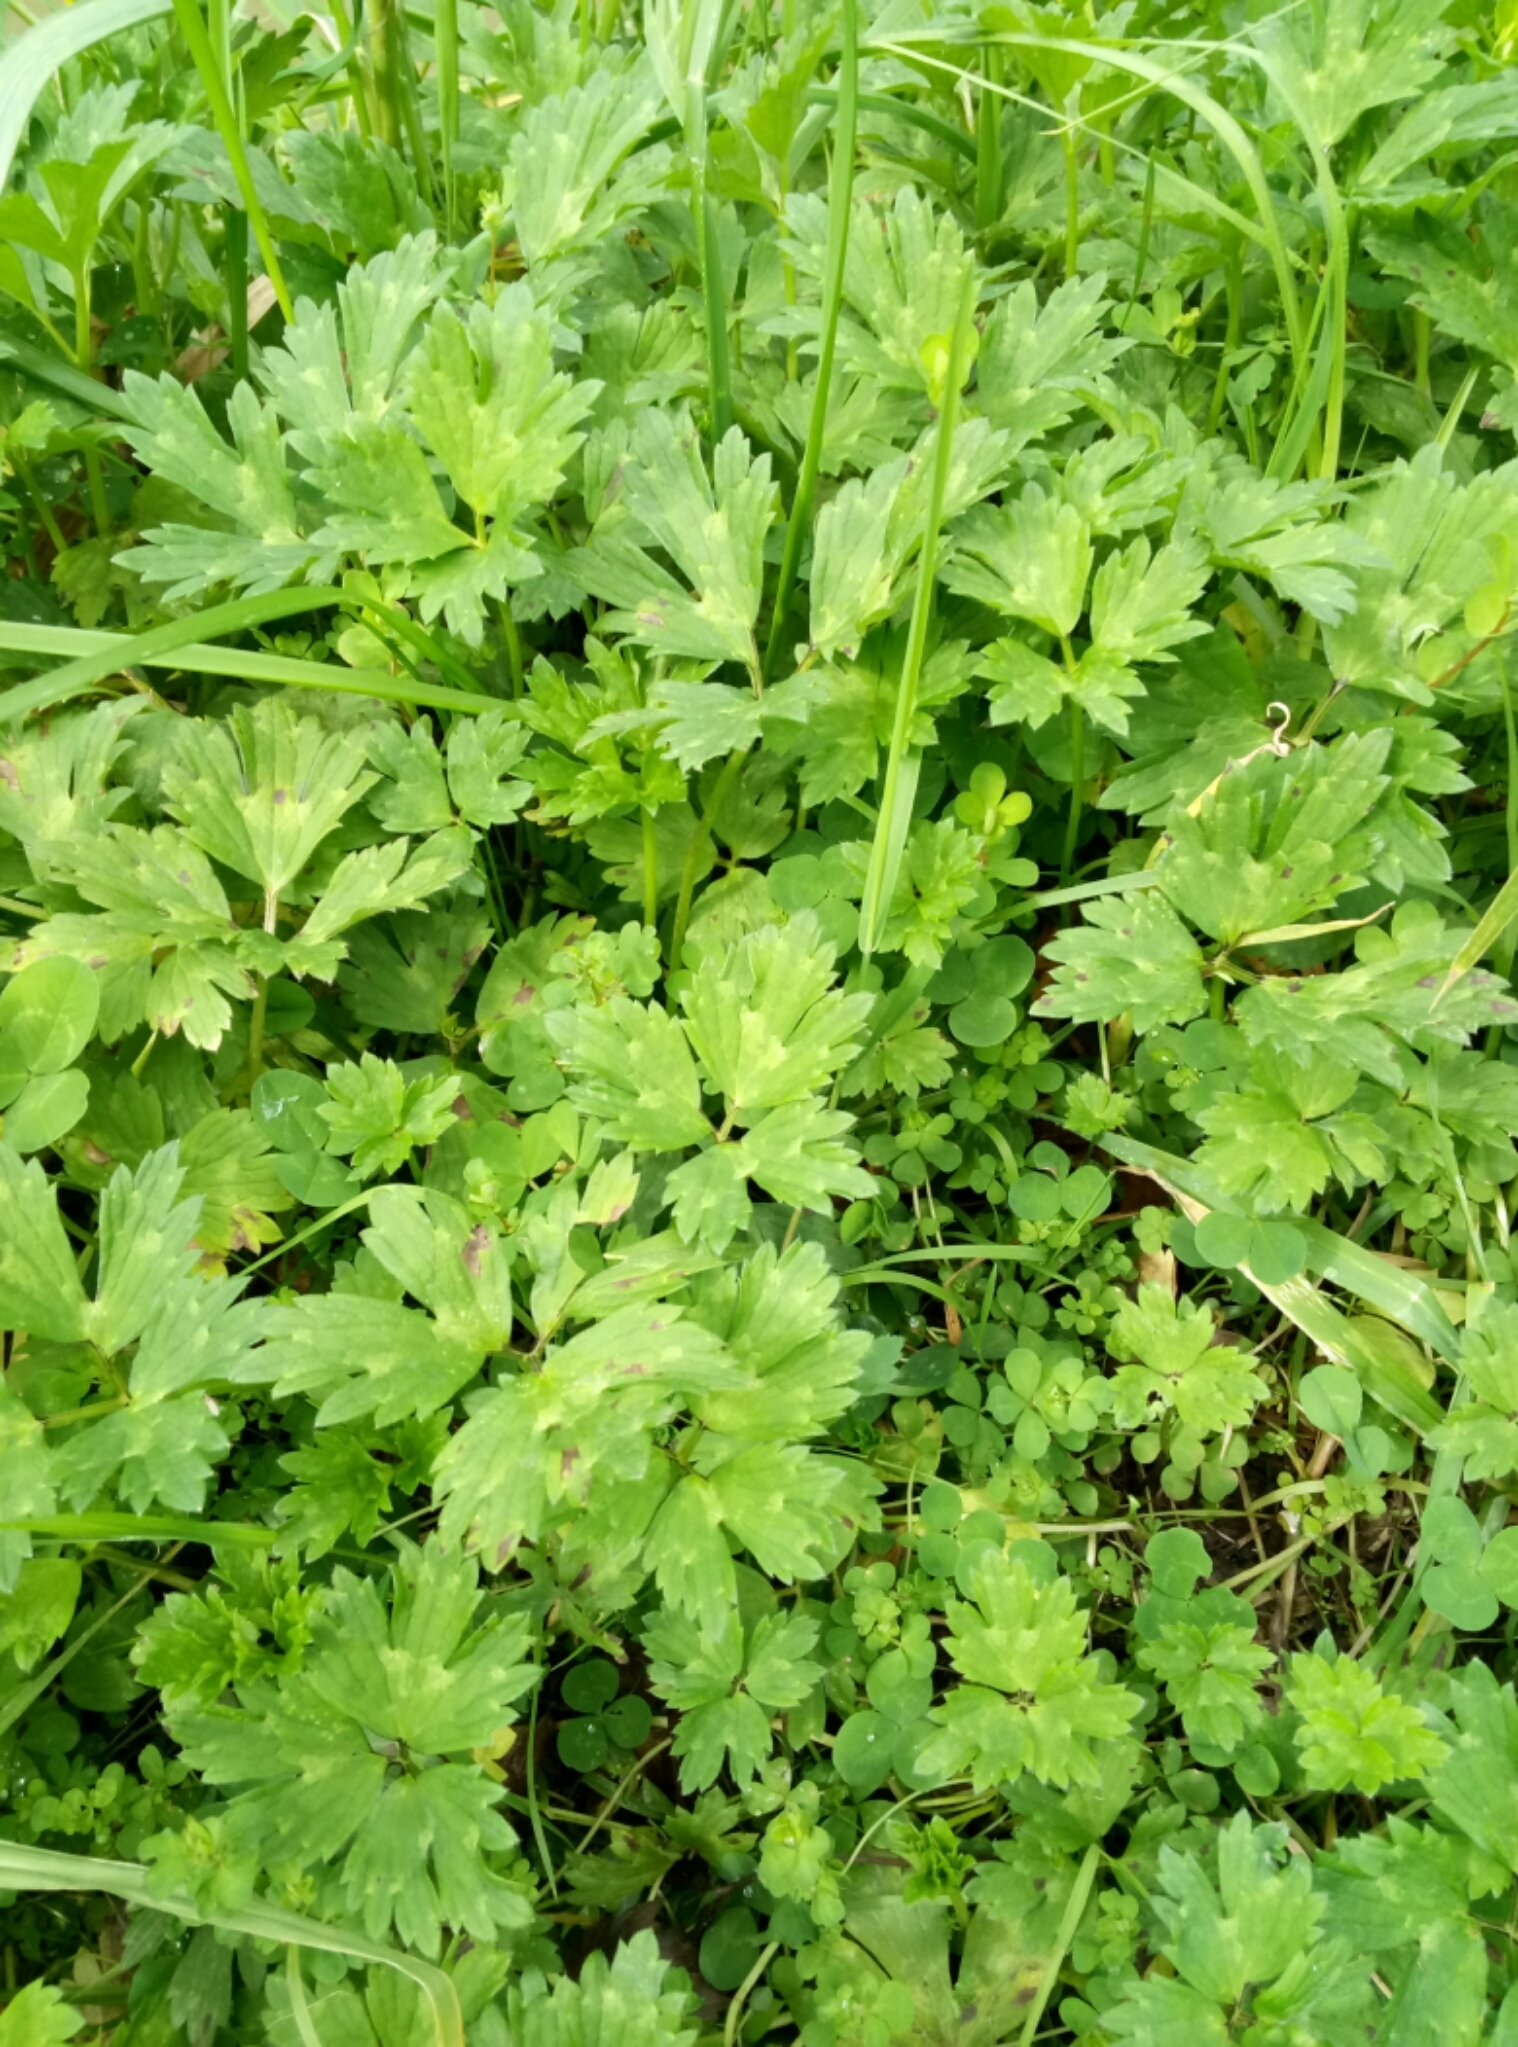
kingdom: Plantae
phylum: Tracheophyta
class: Magnoliopsida
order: Ranunculales
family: Ranunculaceae
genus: Ranunculus
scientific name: Ranunculus repens
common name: Creeping buttercup
